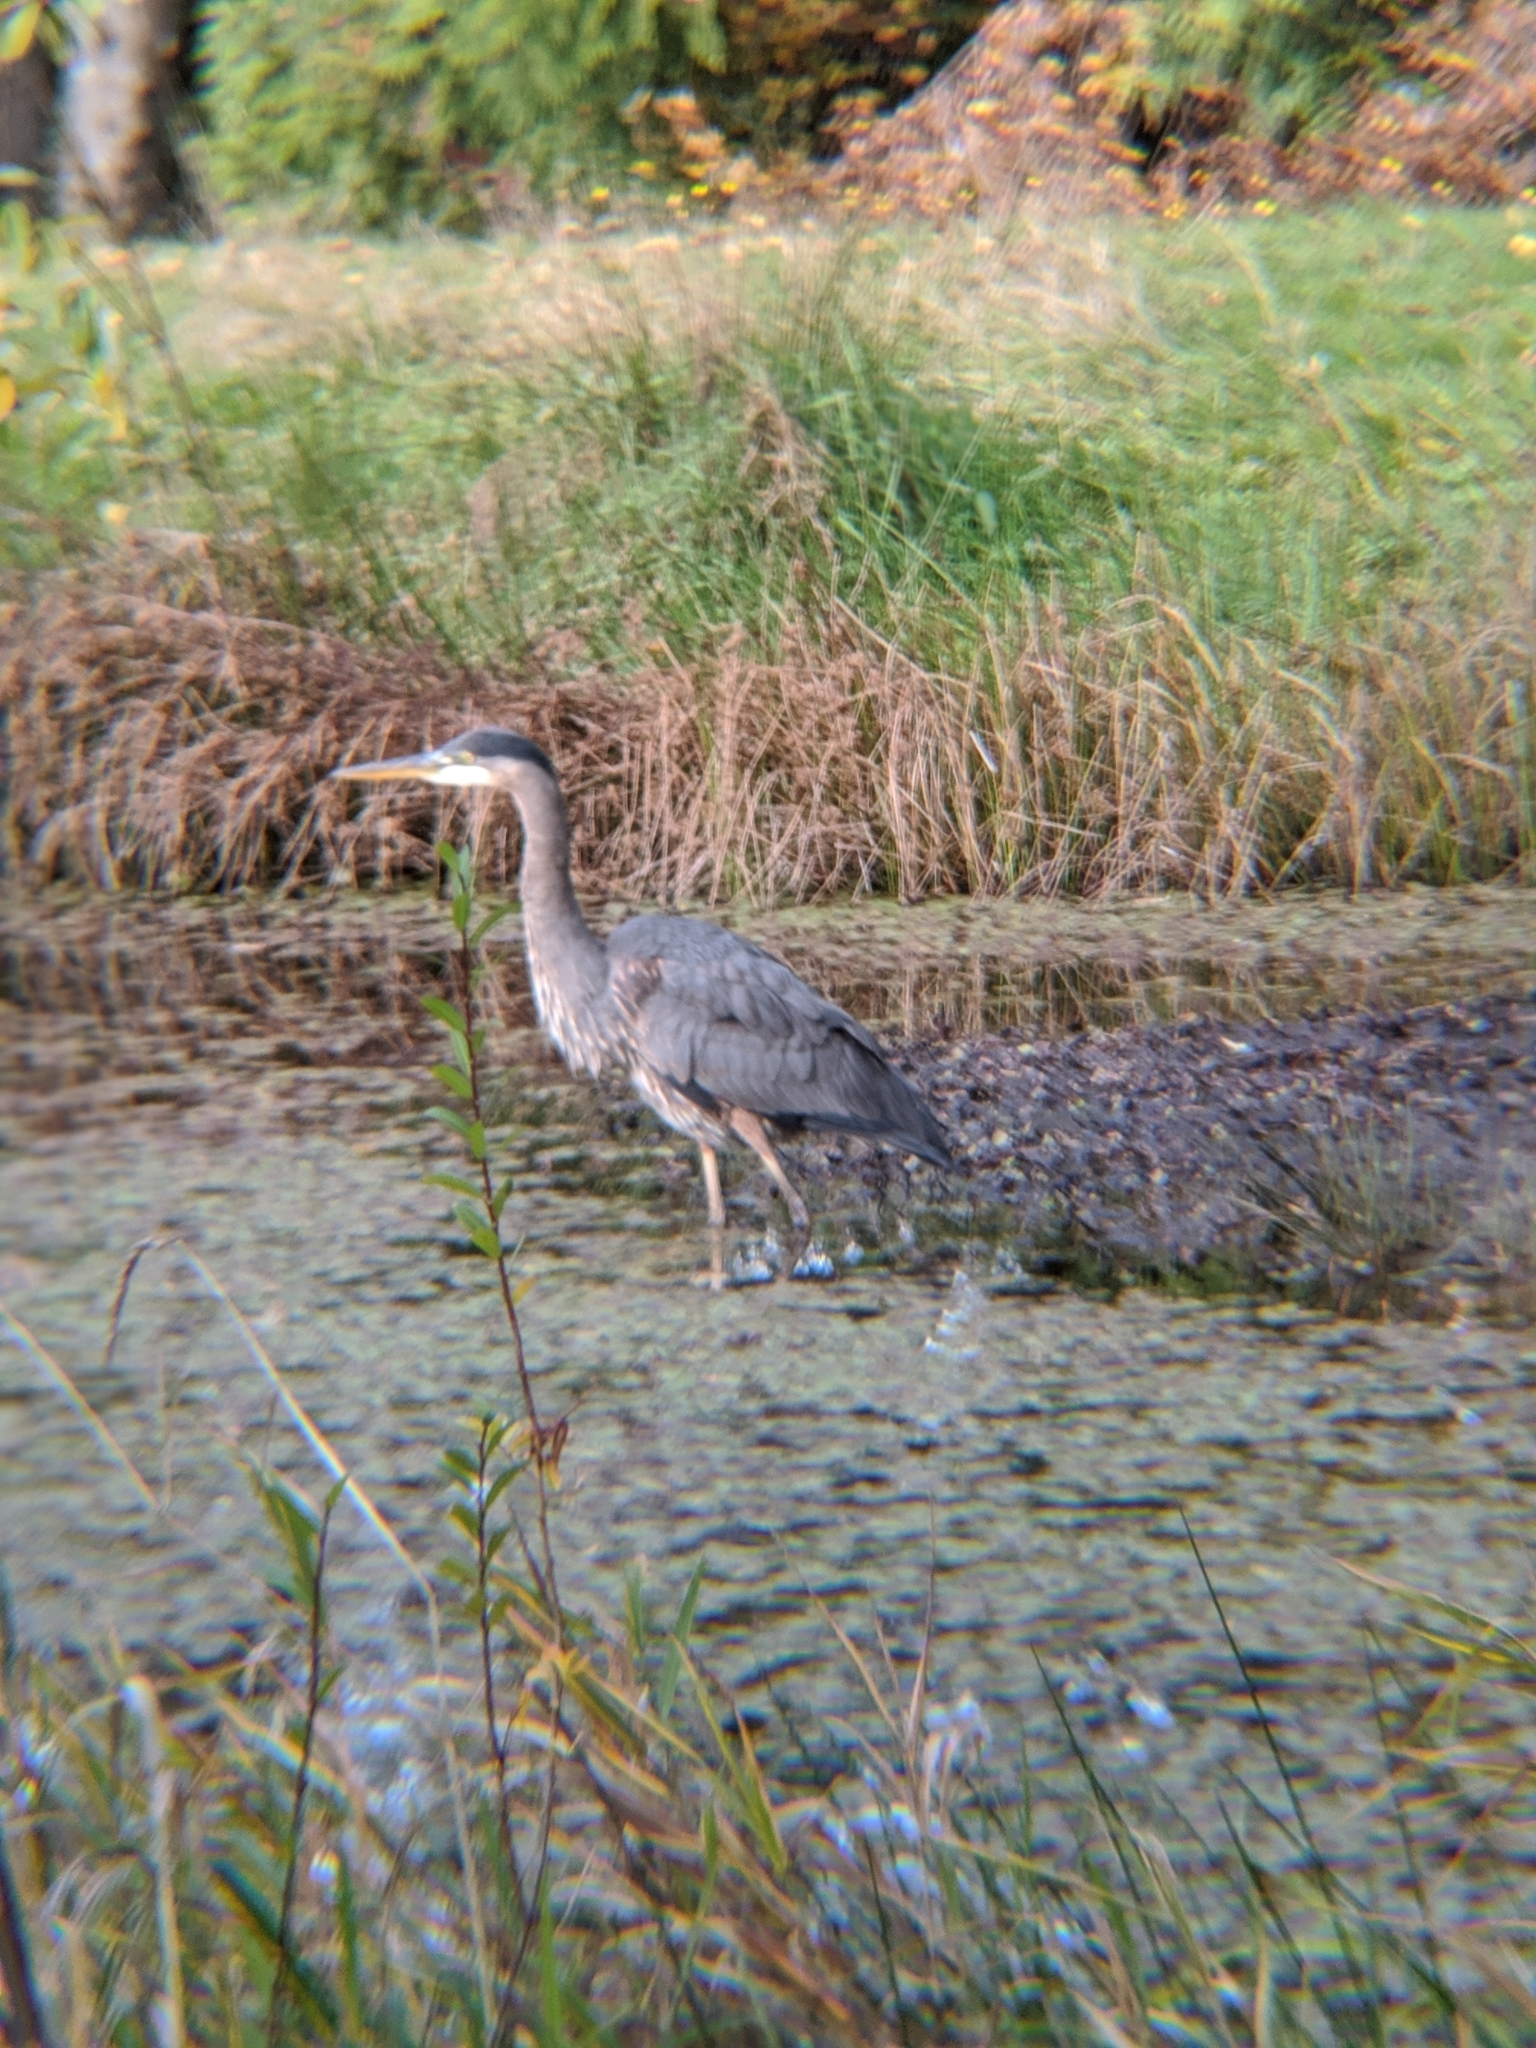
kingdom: Animalia
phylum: Chordata
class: Aves
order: Pelecaniformes
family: Ardeidae
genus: Ardea
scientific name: Ardea herodias
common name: Great blue heron
